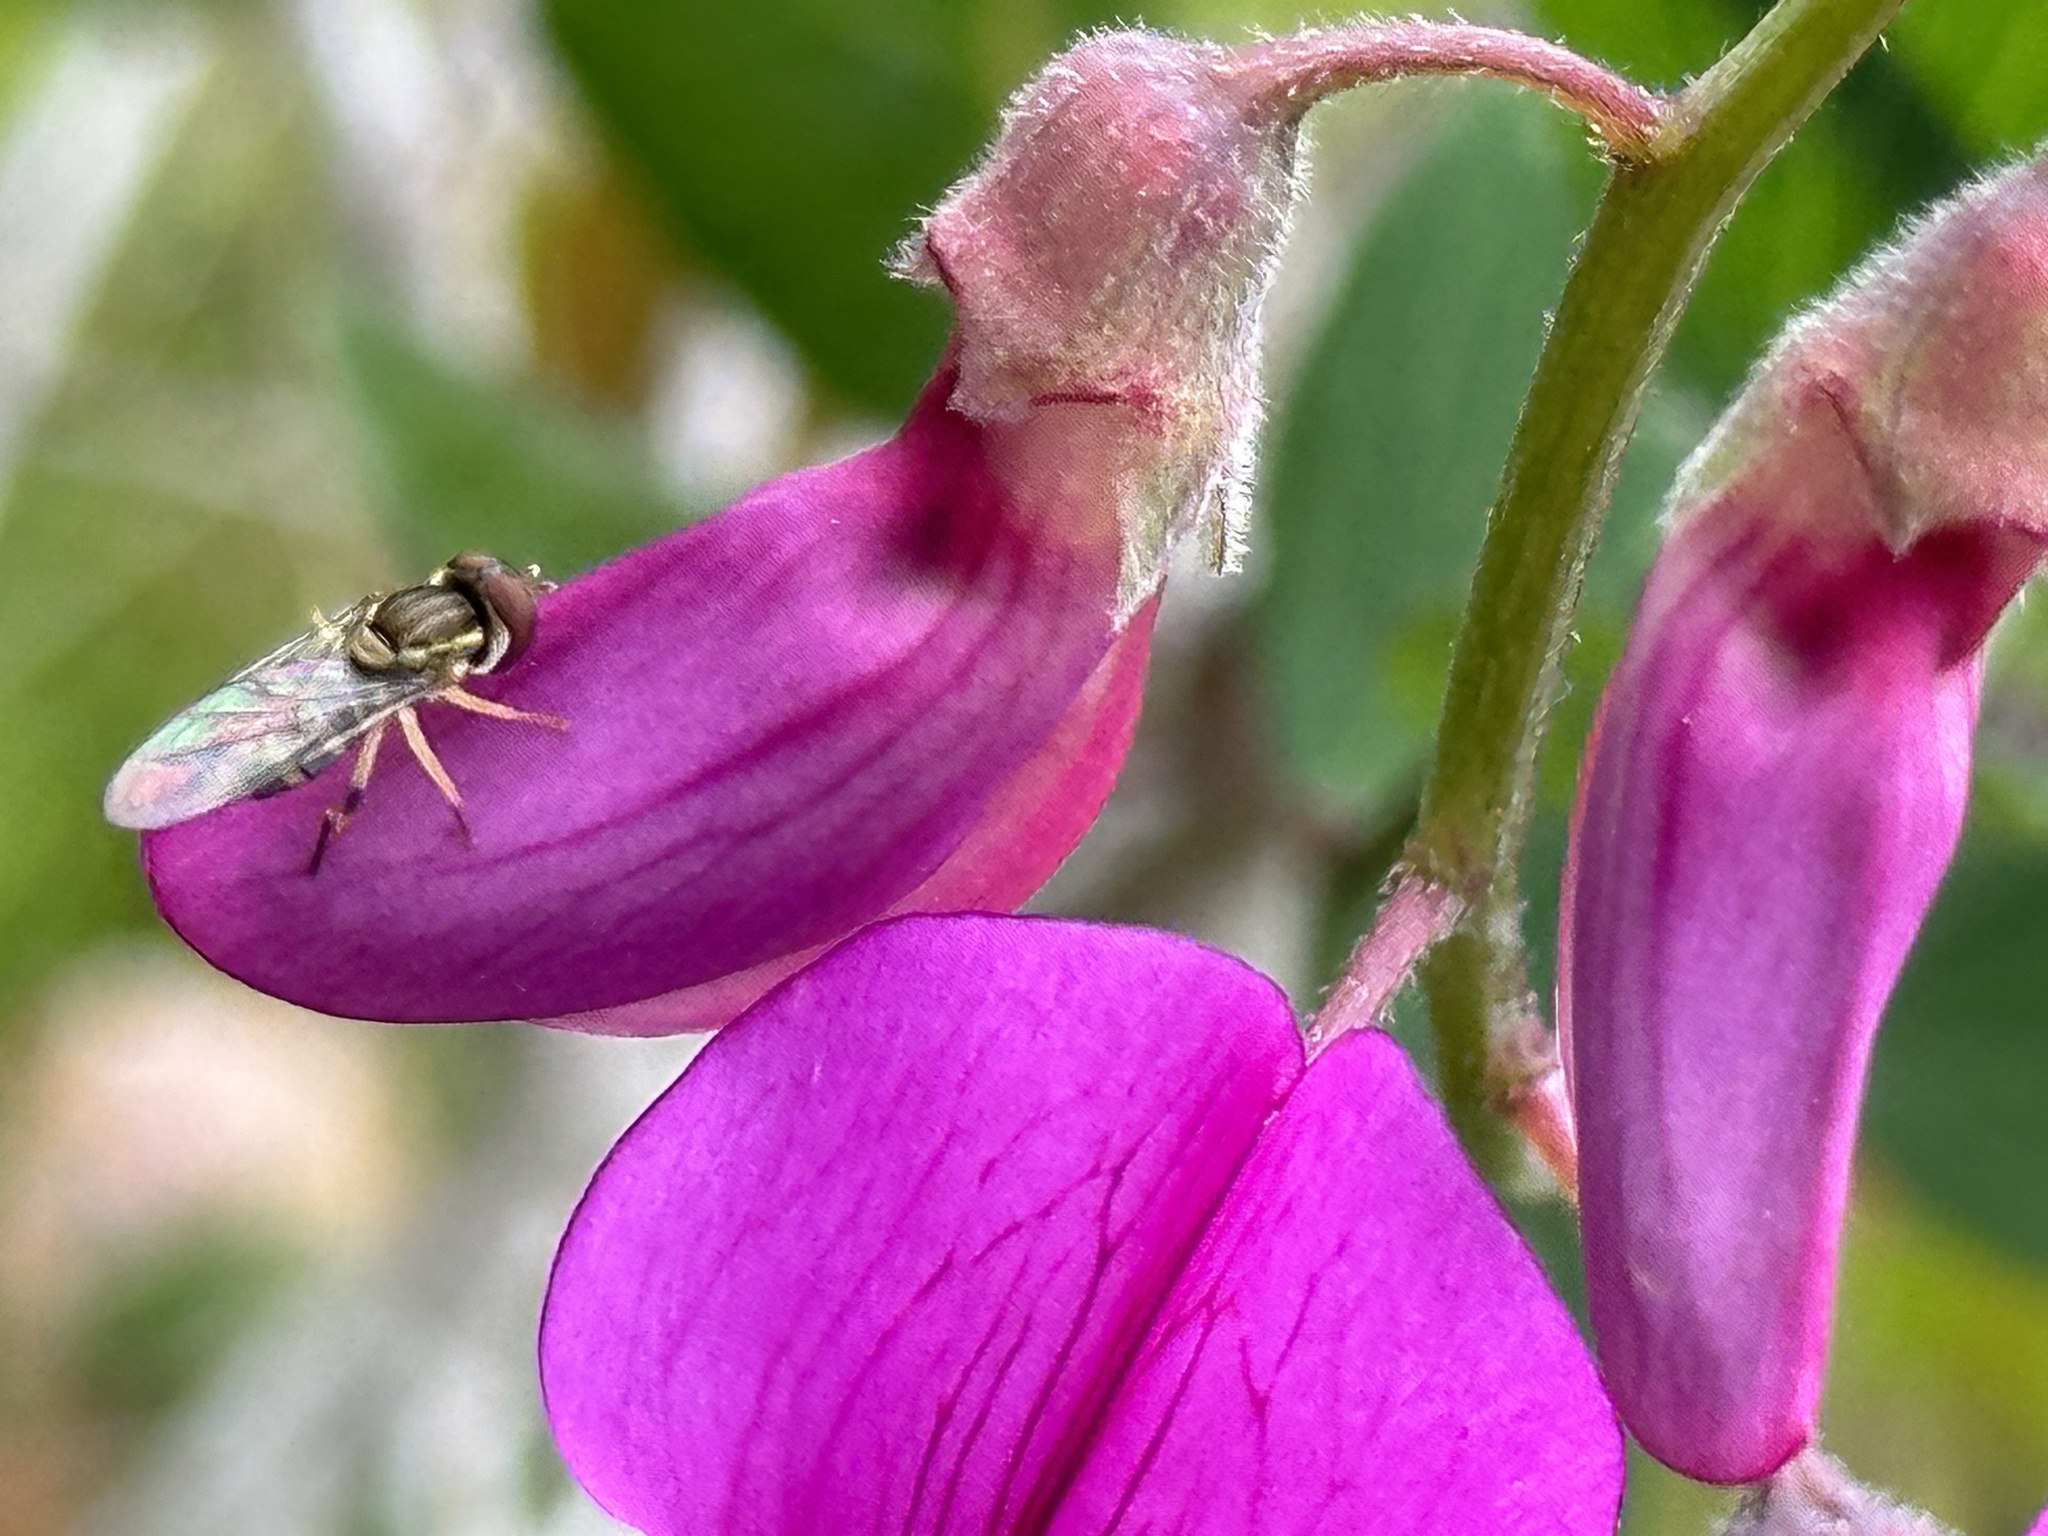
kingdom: Animalia
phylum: Arthropoda
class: Insecta
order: Diptera
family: Syrphidae
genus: Toxomerus
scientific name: Toxomerus occidentalis
